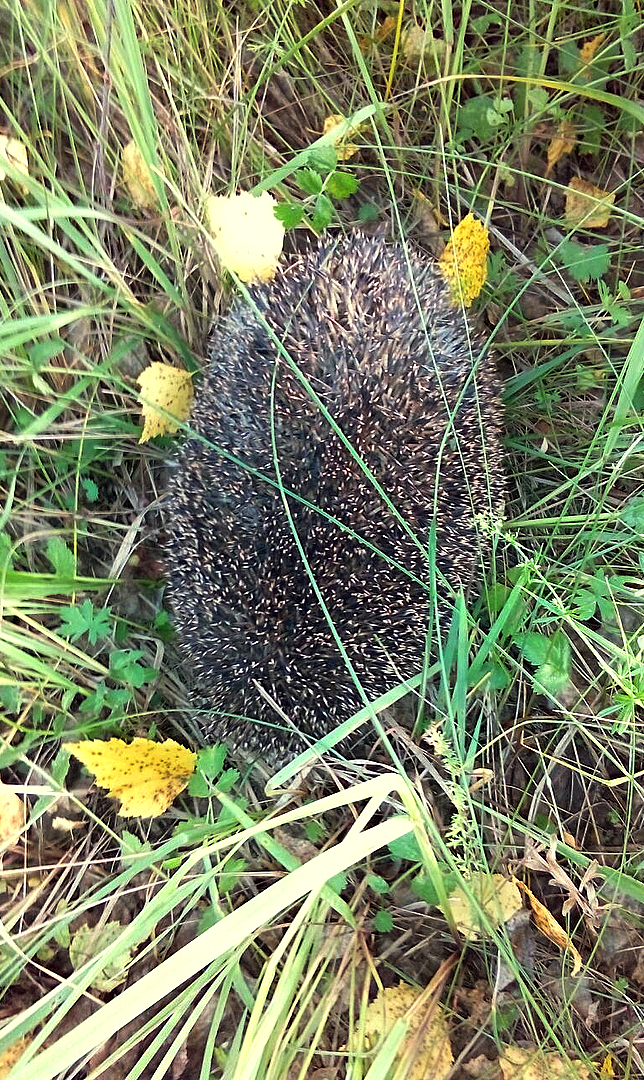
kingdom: Animalia
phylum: Chordata
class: Mammalia
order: Erinaceomorpha
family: Erinaceidae
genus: Erinaceus
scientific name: Erinaceus roumanicus
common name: Northern white-breasted hedgehog
